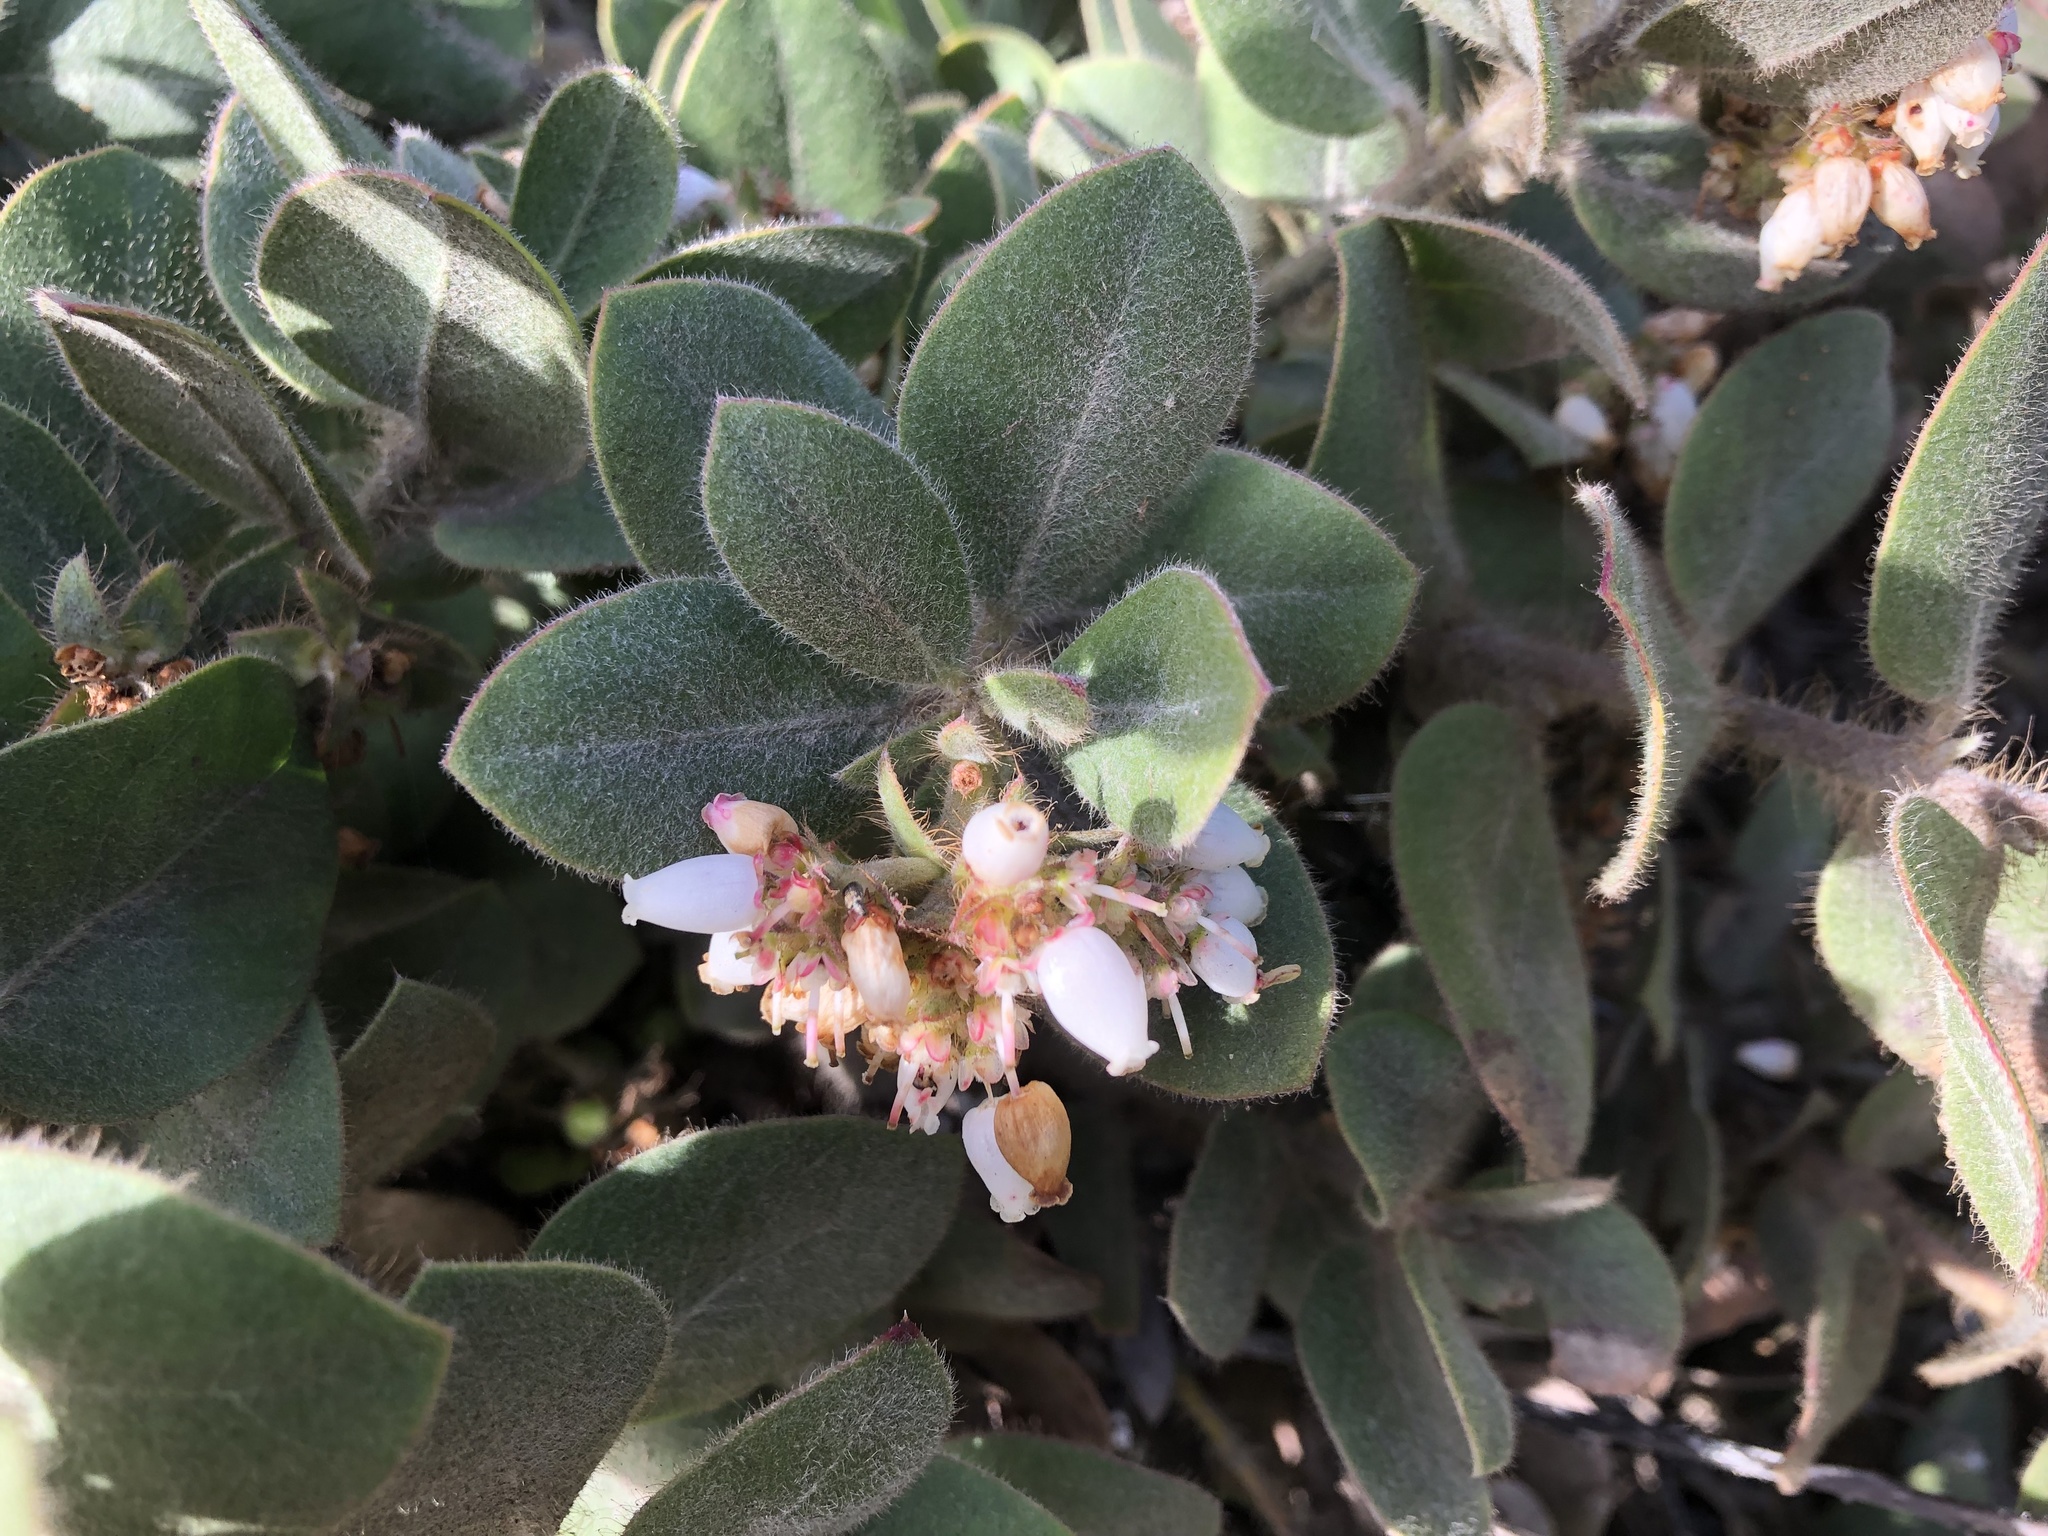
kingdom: Plantae
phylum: Tracheophyta
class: Magnoliopsida
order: Ericales
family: Ericaceae
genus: Arctostaphylos
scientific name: Arctostaphylos columbiana
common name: Bristly bearberry
